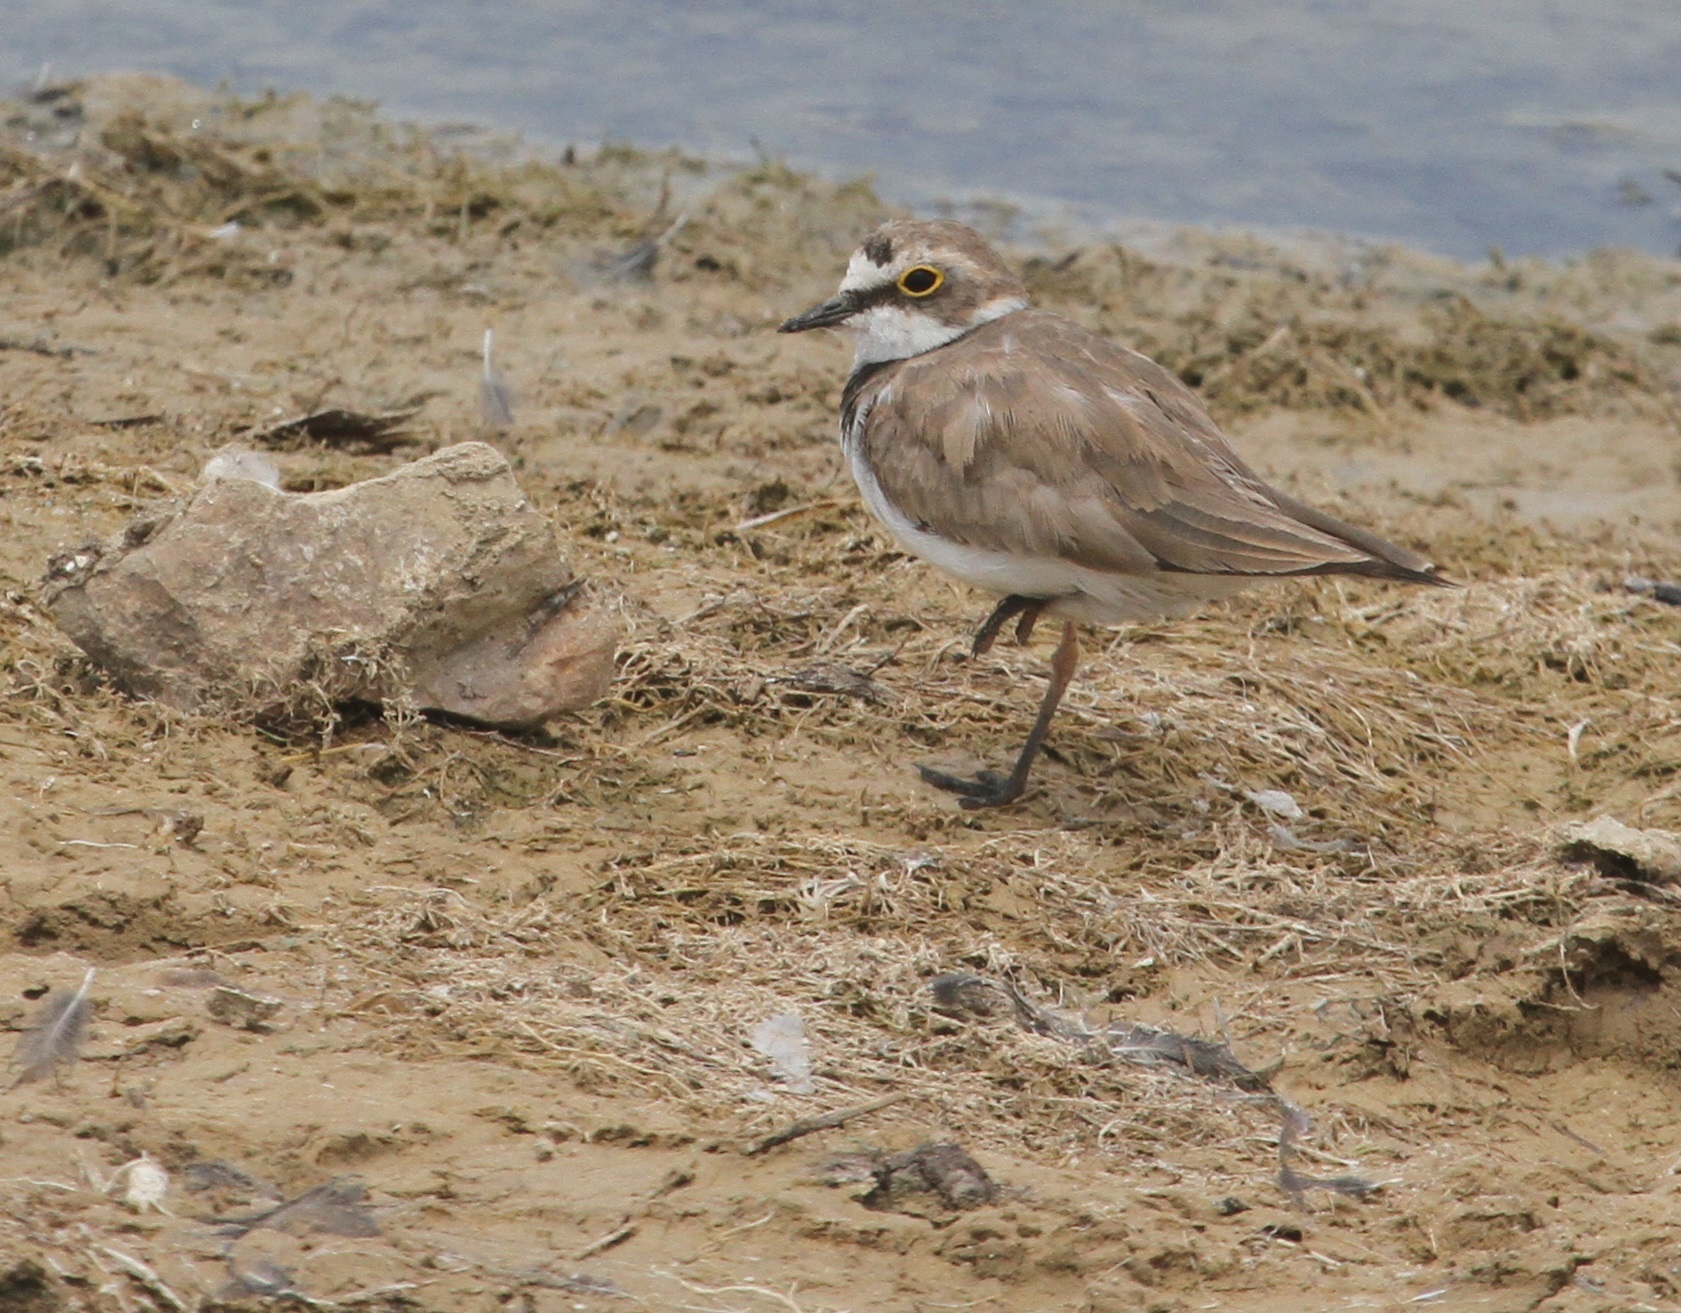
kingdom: Animalia
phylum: Chordata
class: Aves
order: Charadriiformes
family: Charadriidae
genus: Charadrius
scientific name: Charadrius dubius
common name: Little ringed plover
